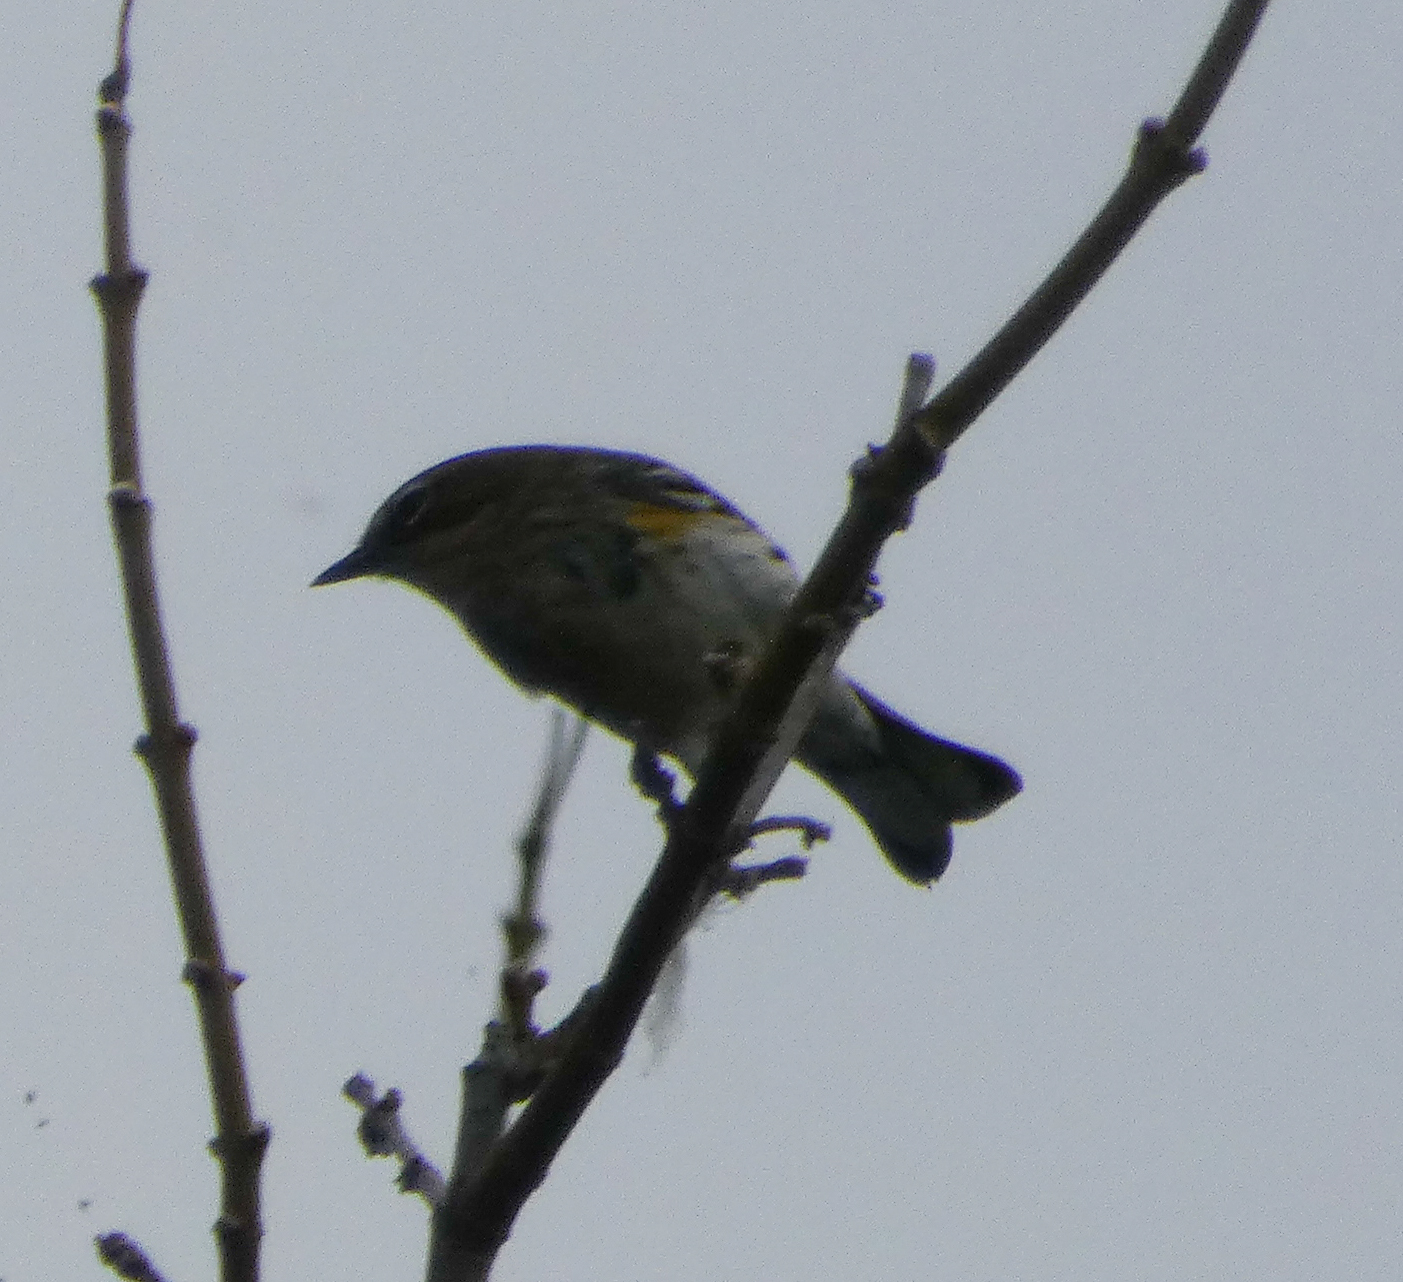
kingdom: Animalia
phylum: Chordata
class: Aves
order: Passeriformes
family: Parulidae
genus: Setophaga
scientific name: Setophaga coronata
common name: Myrtle warbler
